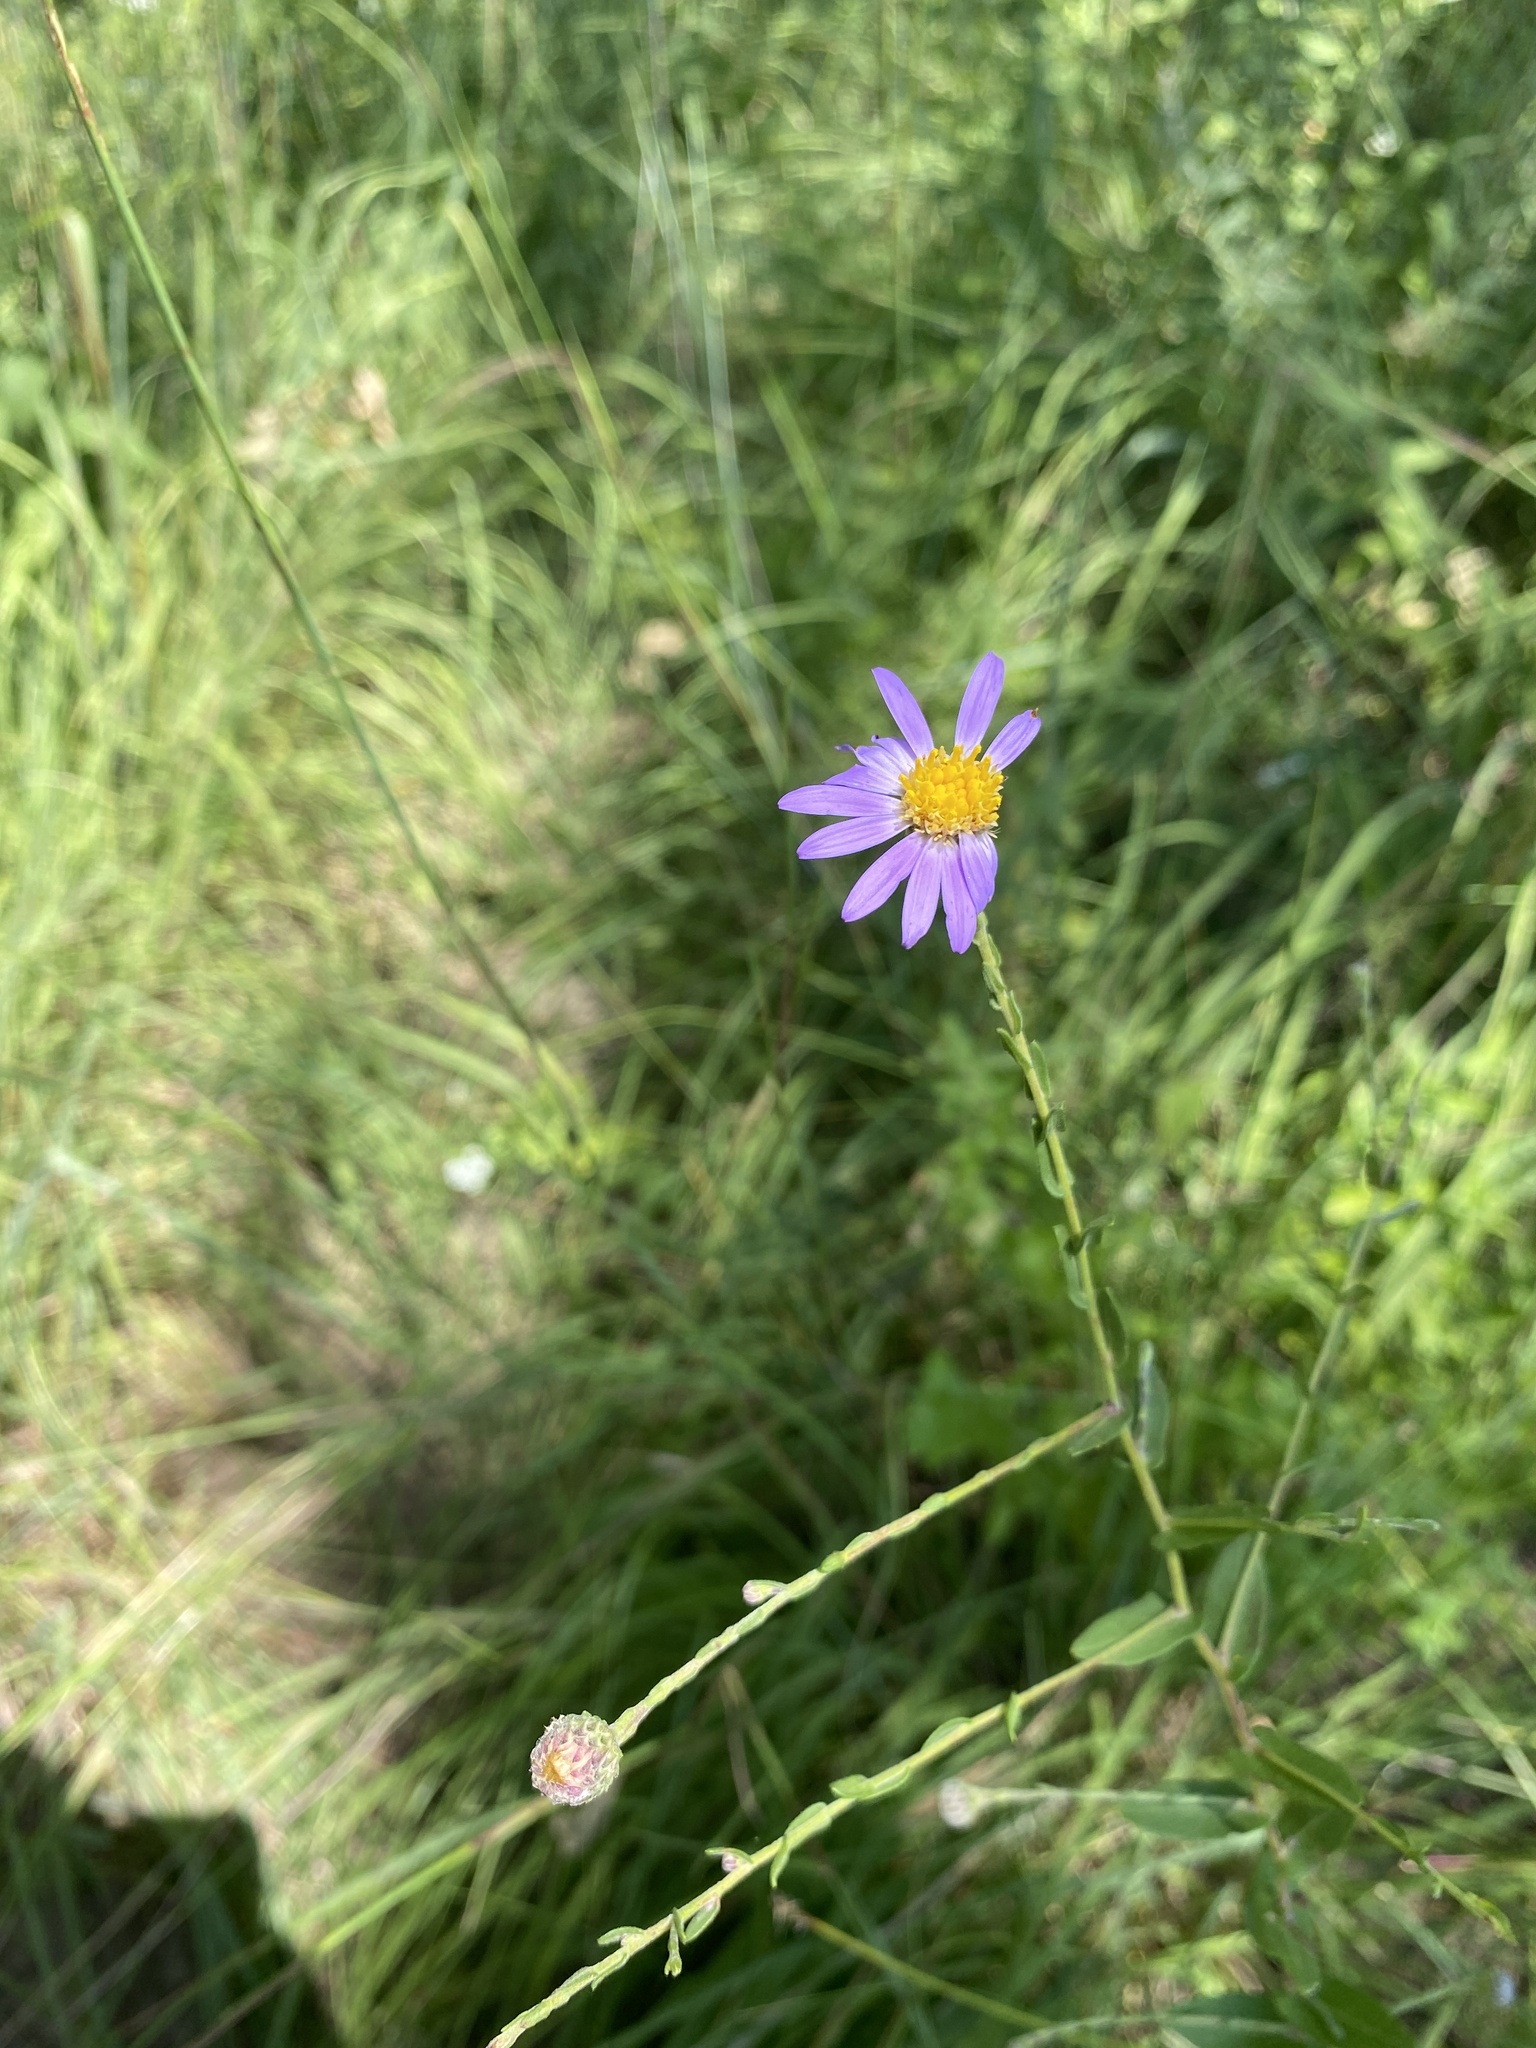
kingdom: Plantae
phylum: Tracheophyta
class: Magnoliopsida
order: Asterales
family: Asteraceae
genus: Symphyotrichum
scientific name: Symphyotrichum patens
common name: Late purple aster
